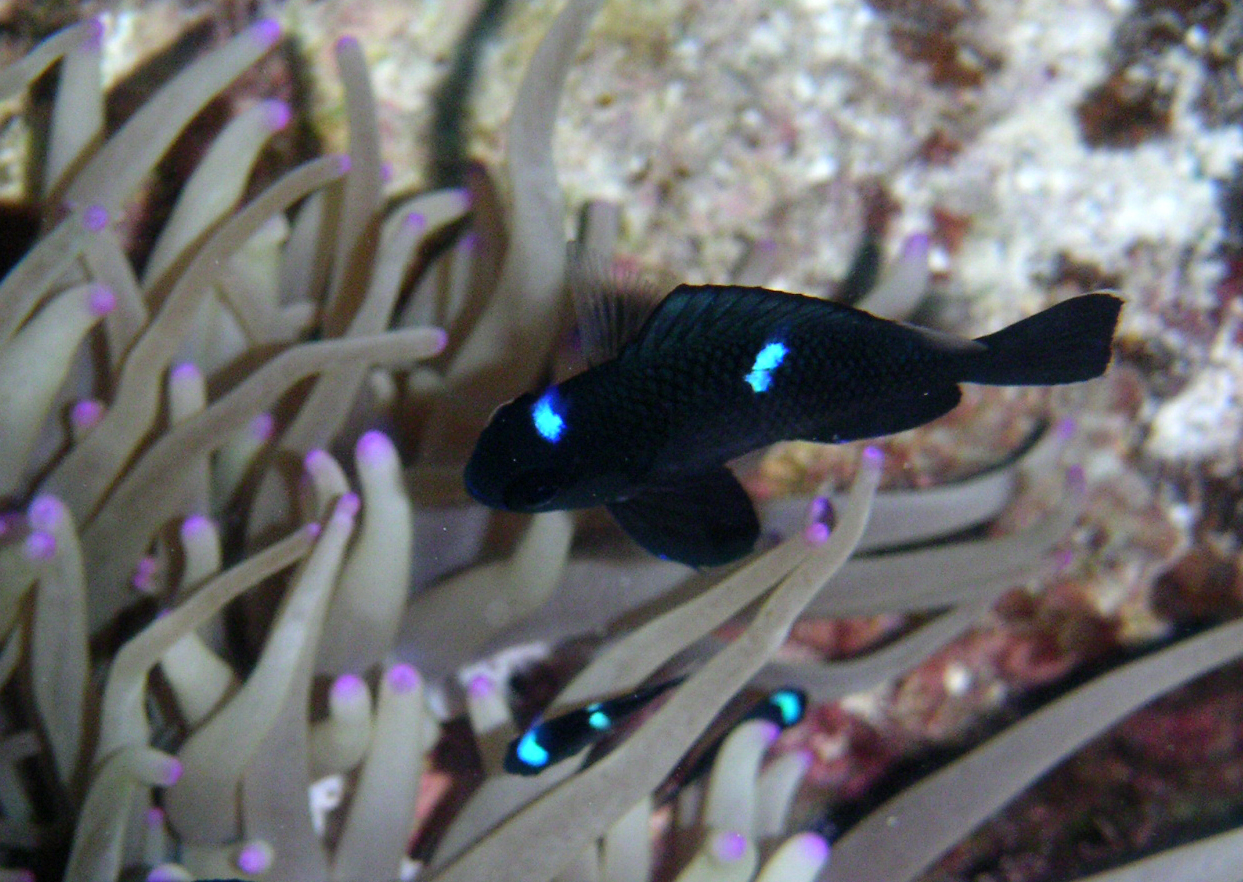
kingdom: Animalia
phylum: Chordata
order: Perciformes
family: Pomacentridae
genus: Dascyllus
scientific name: Dascyllus trimaculatus
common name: Threespot dascyllus
